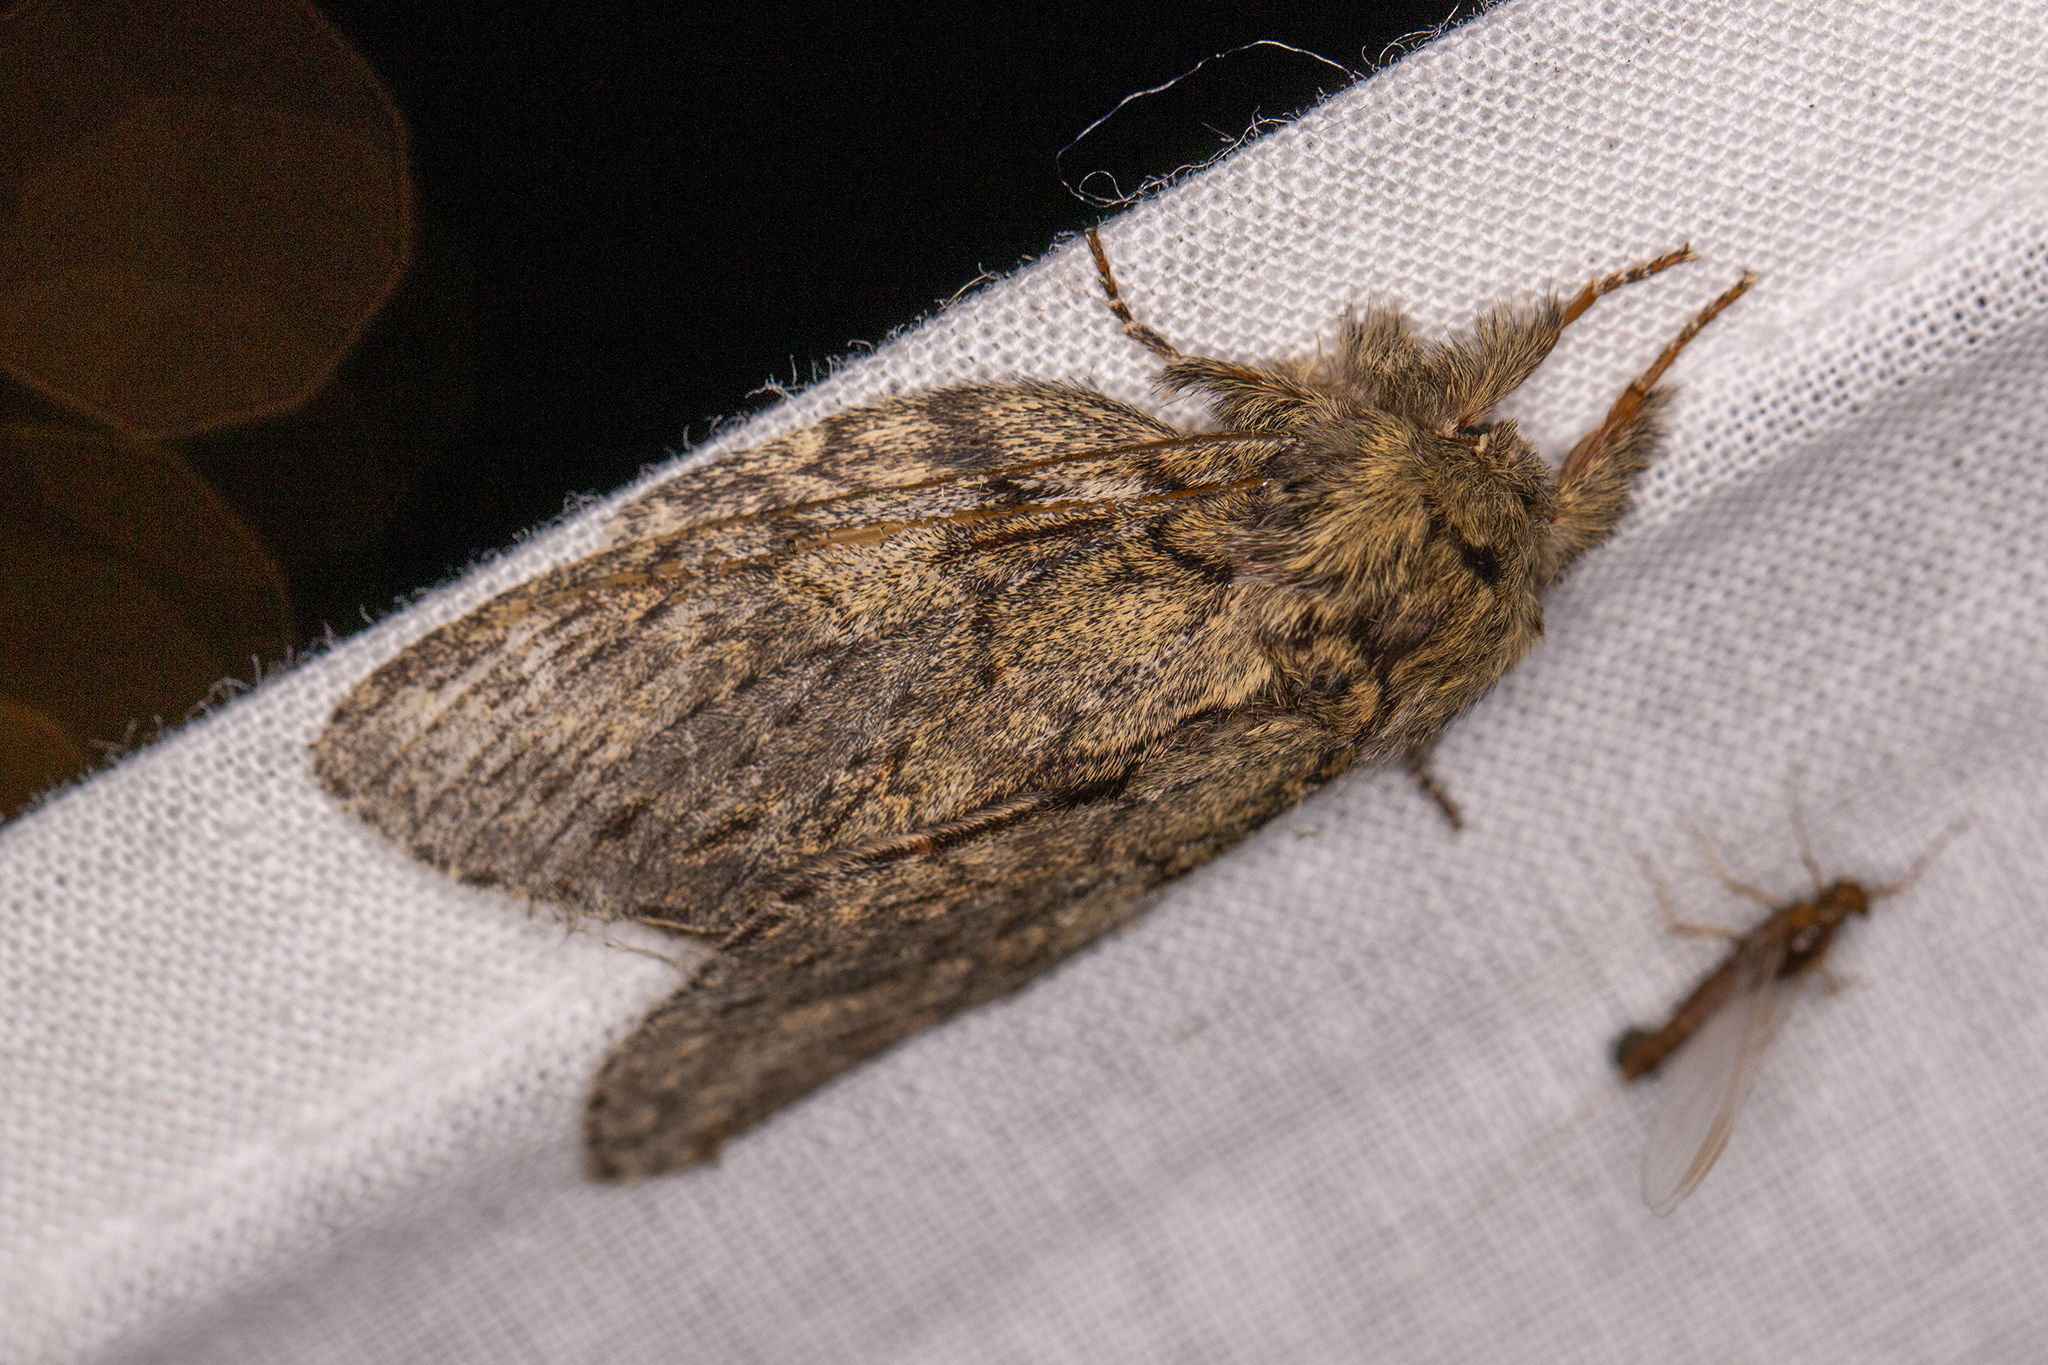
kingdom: Animalia
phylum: Arthropoda
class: Insecta
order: Lepidoptera
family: Notodontidae
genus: Peridea
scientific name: Peridea anceps
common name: Great prominent
